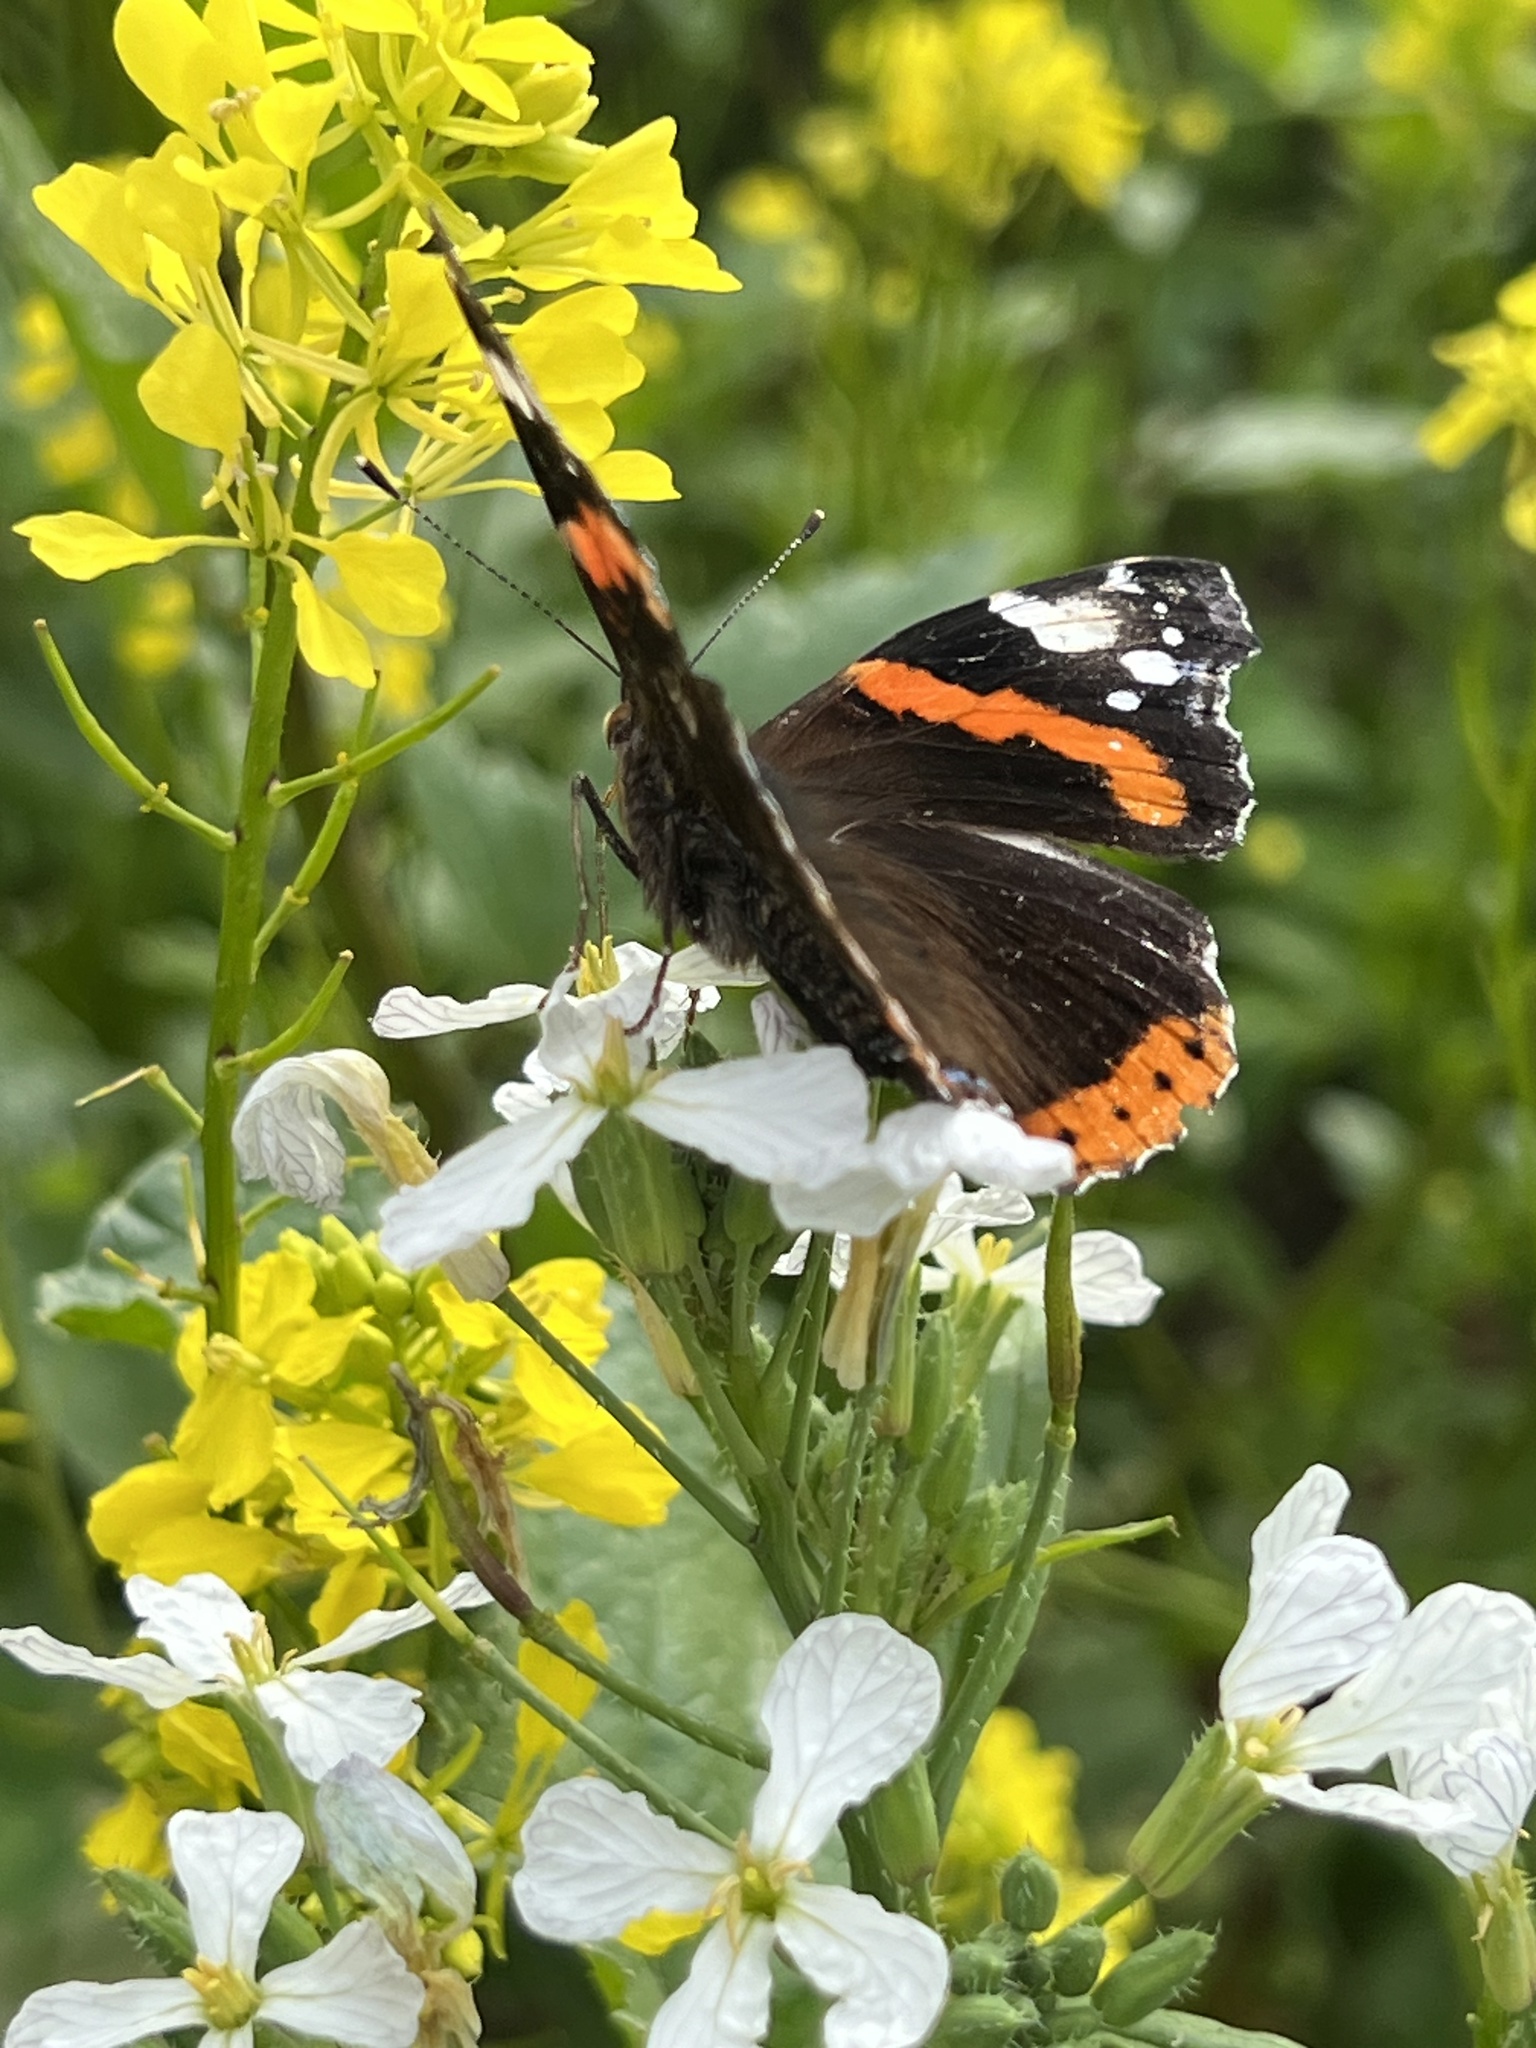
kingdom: Animalia
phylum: Arthropoda
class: Insecta
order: Lepidoptera
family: Nymphalidae
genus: Vanessa
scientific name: Vanessa atalanta
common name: Red admiral
